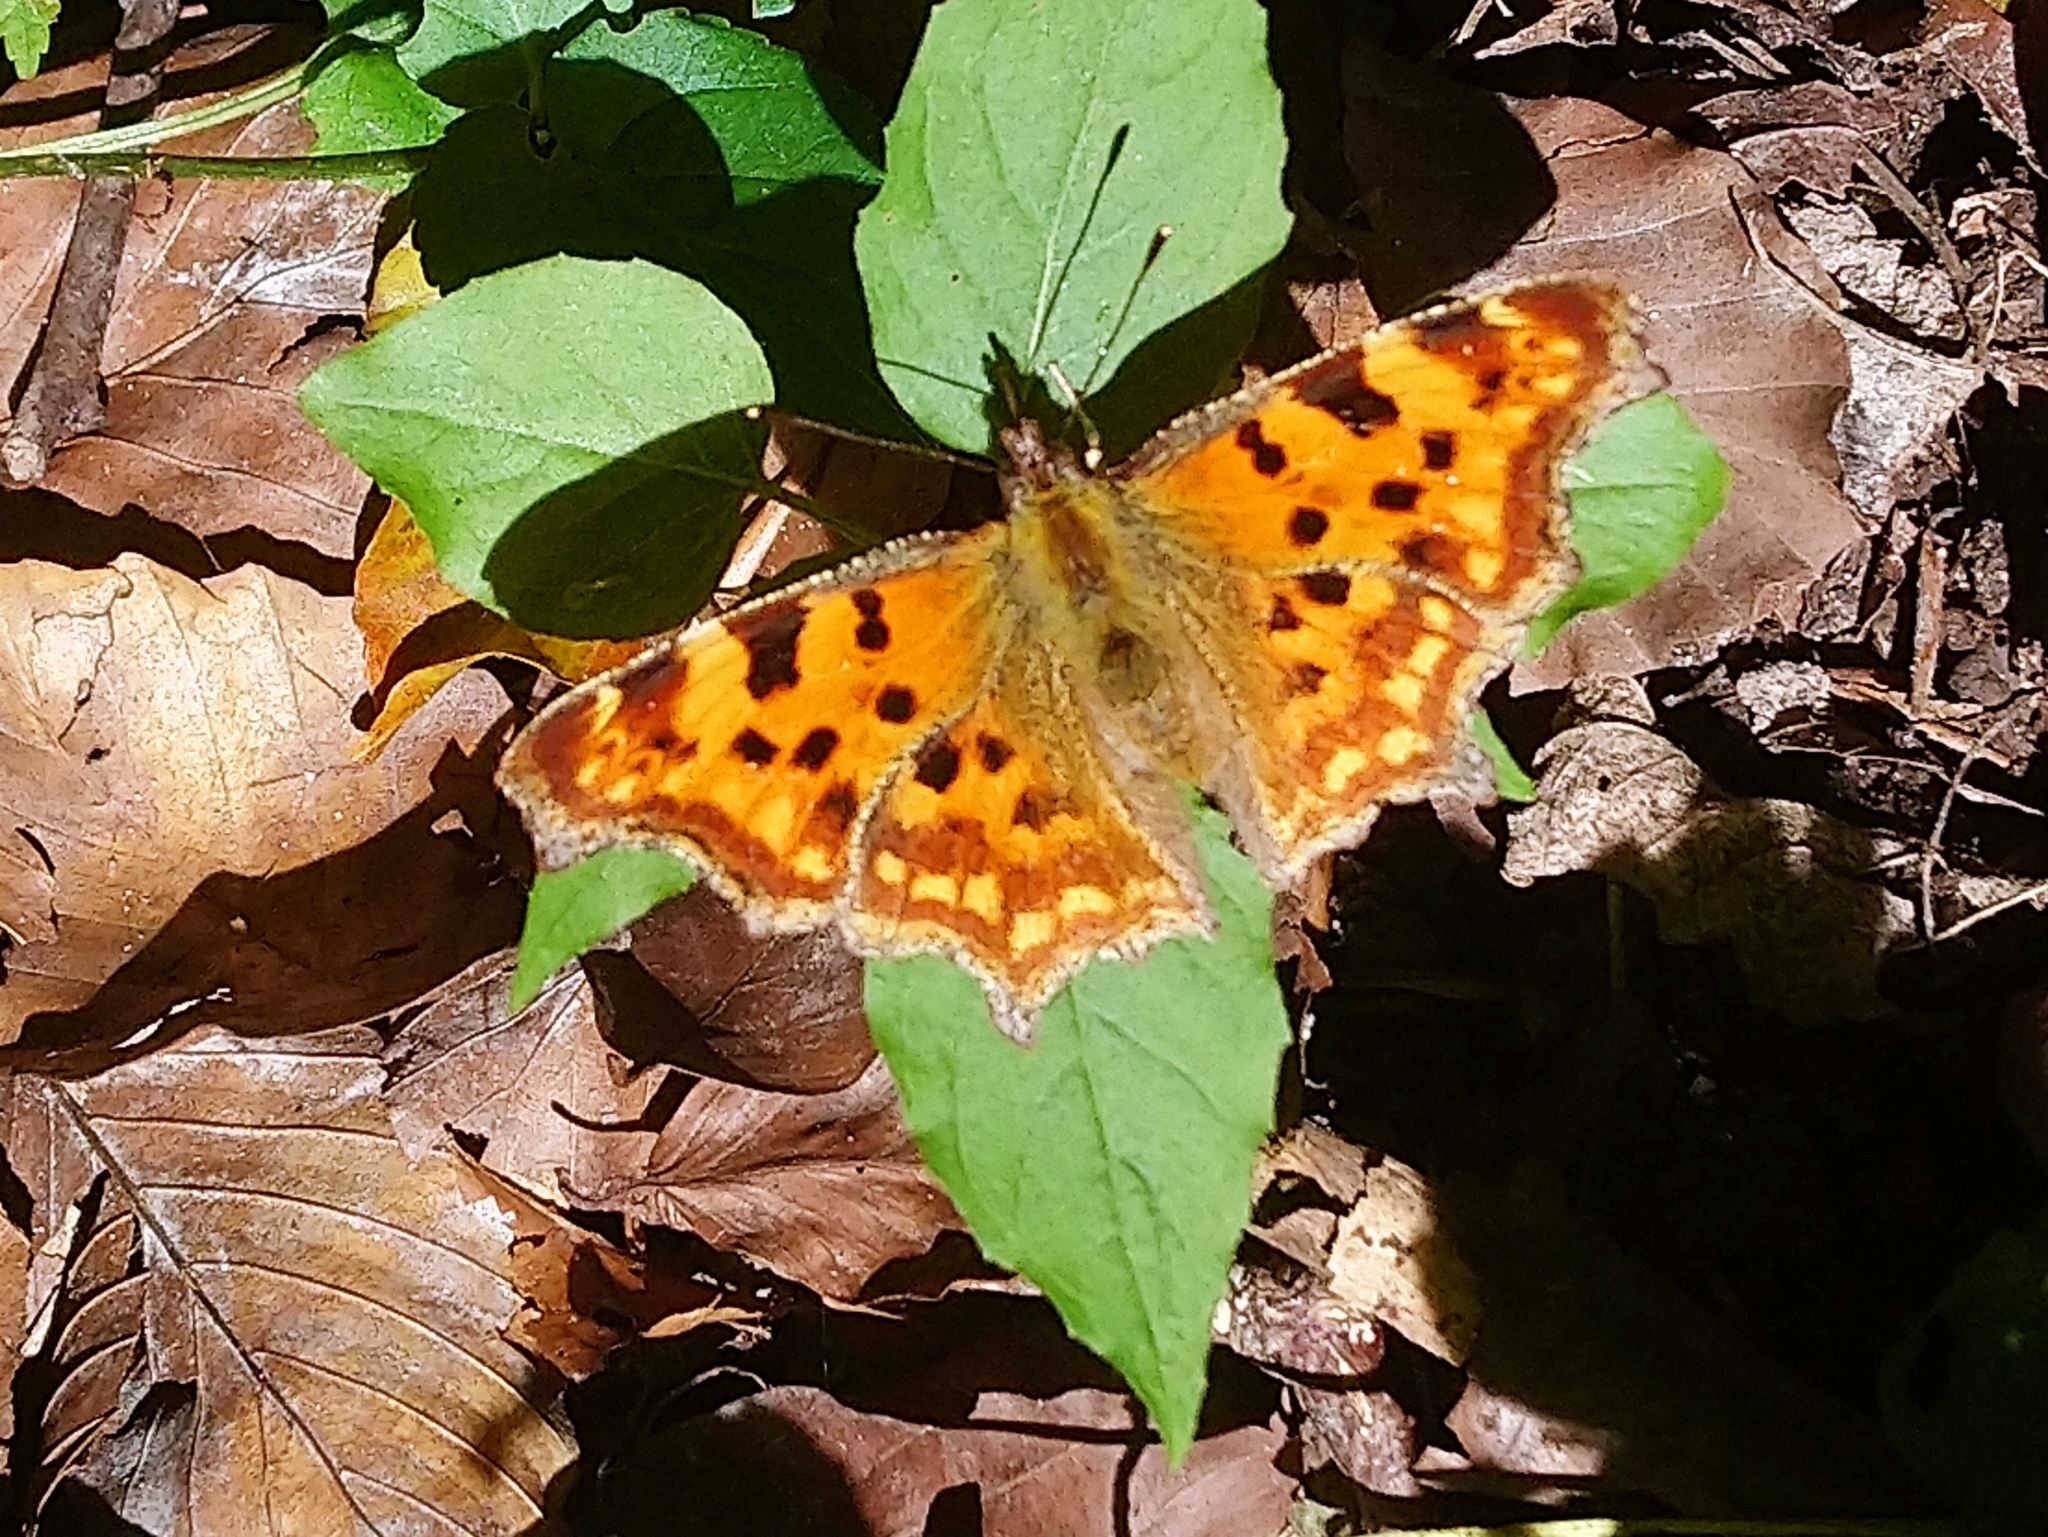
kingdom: Animalia
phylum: Arthropoda
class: Insecta
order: Lepidoptera
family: Nymphalidae
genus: Polygonia
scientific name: Polygonia c-album
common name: Comma
